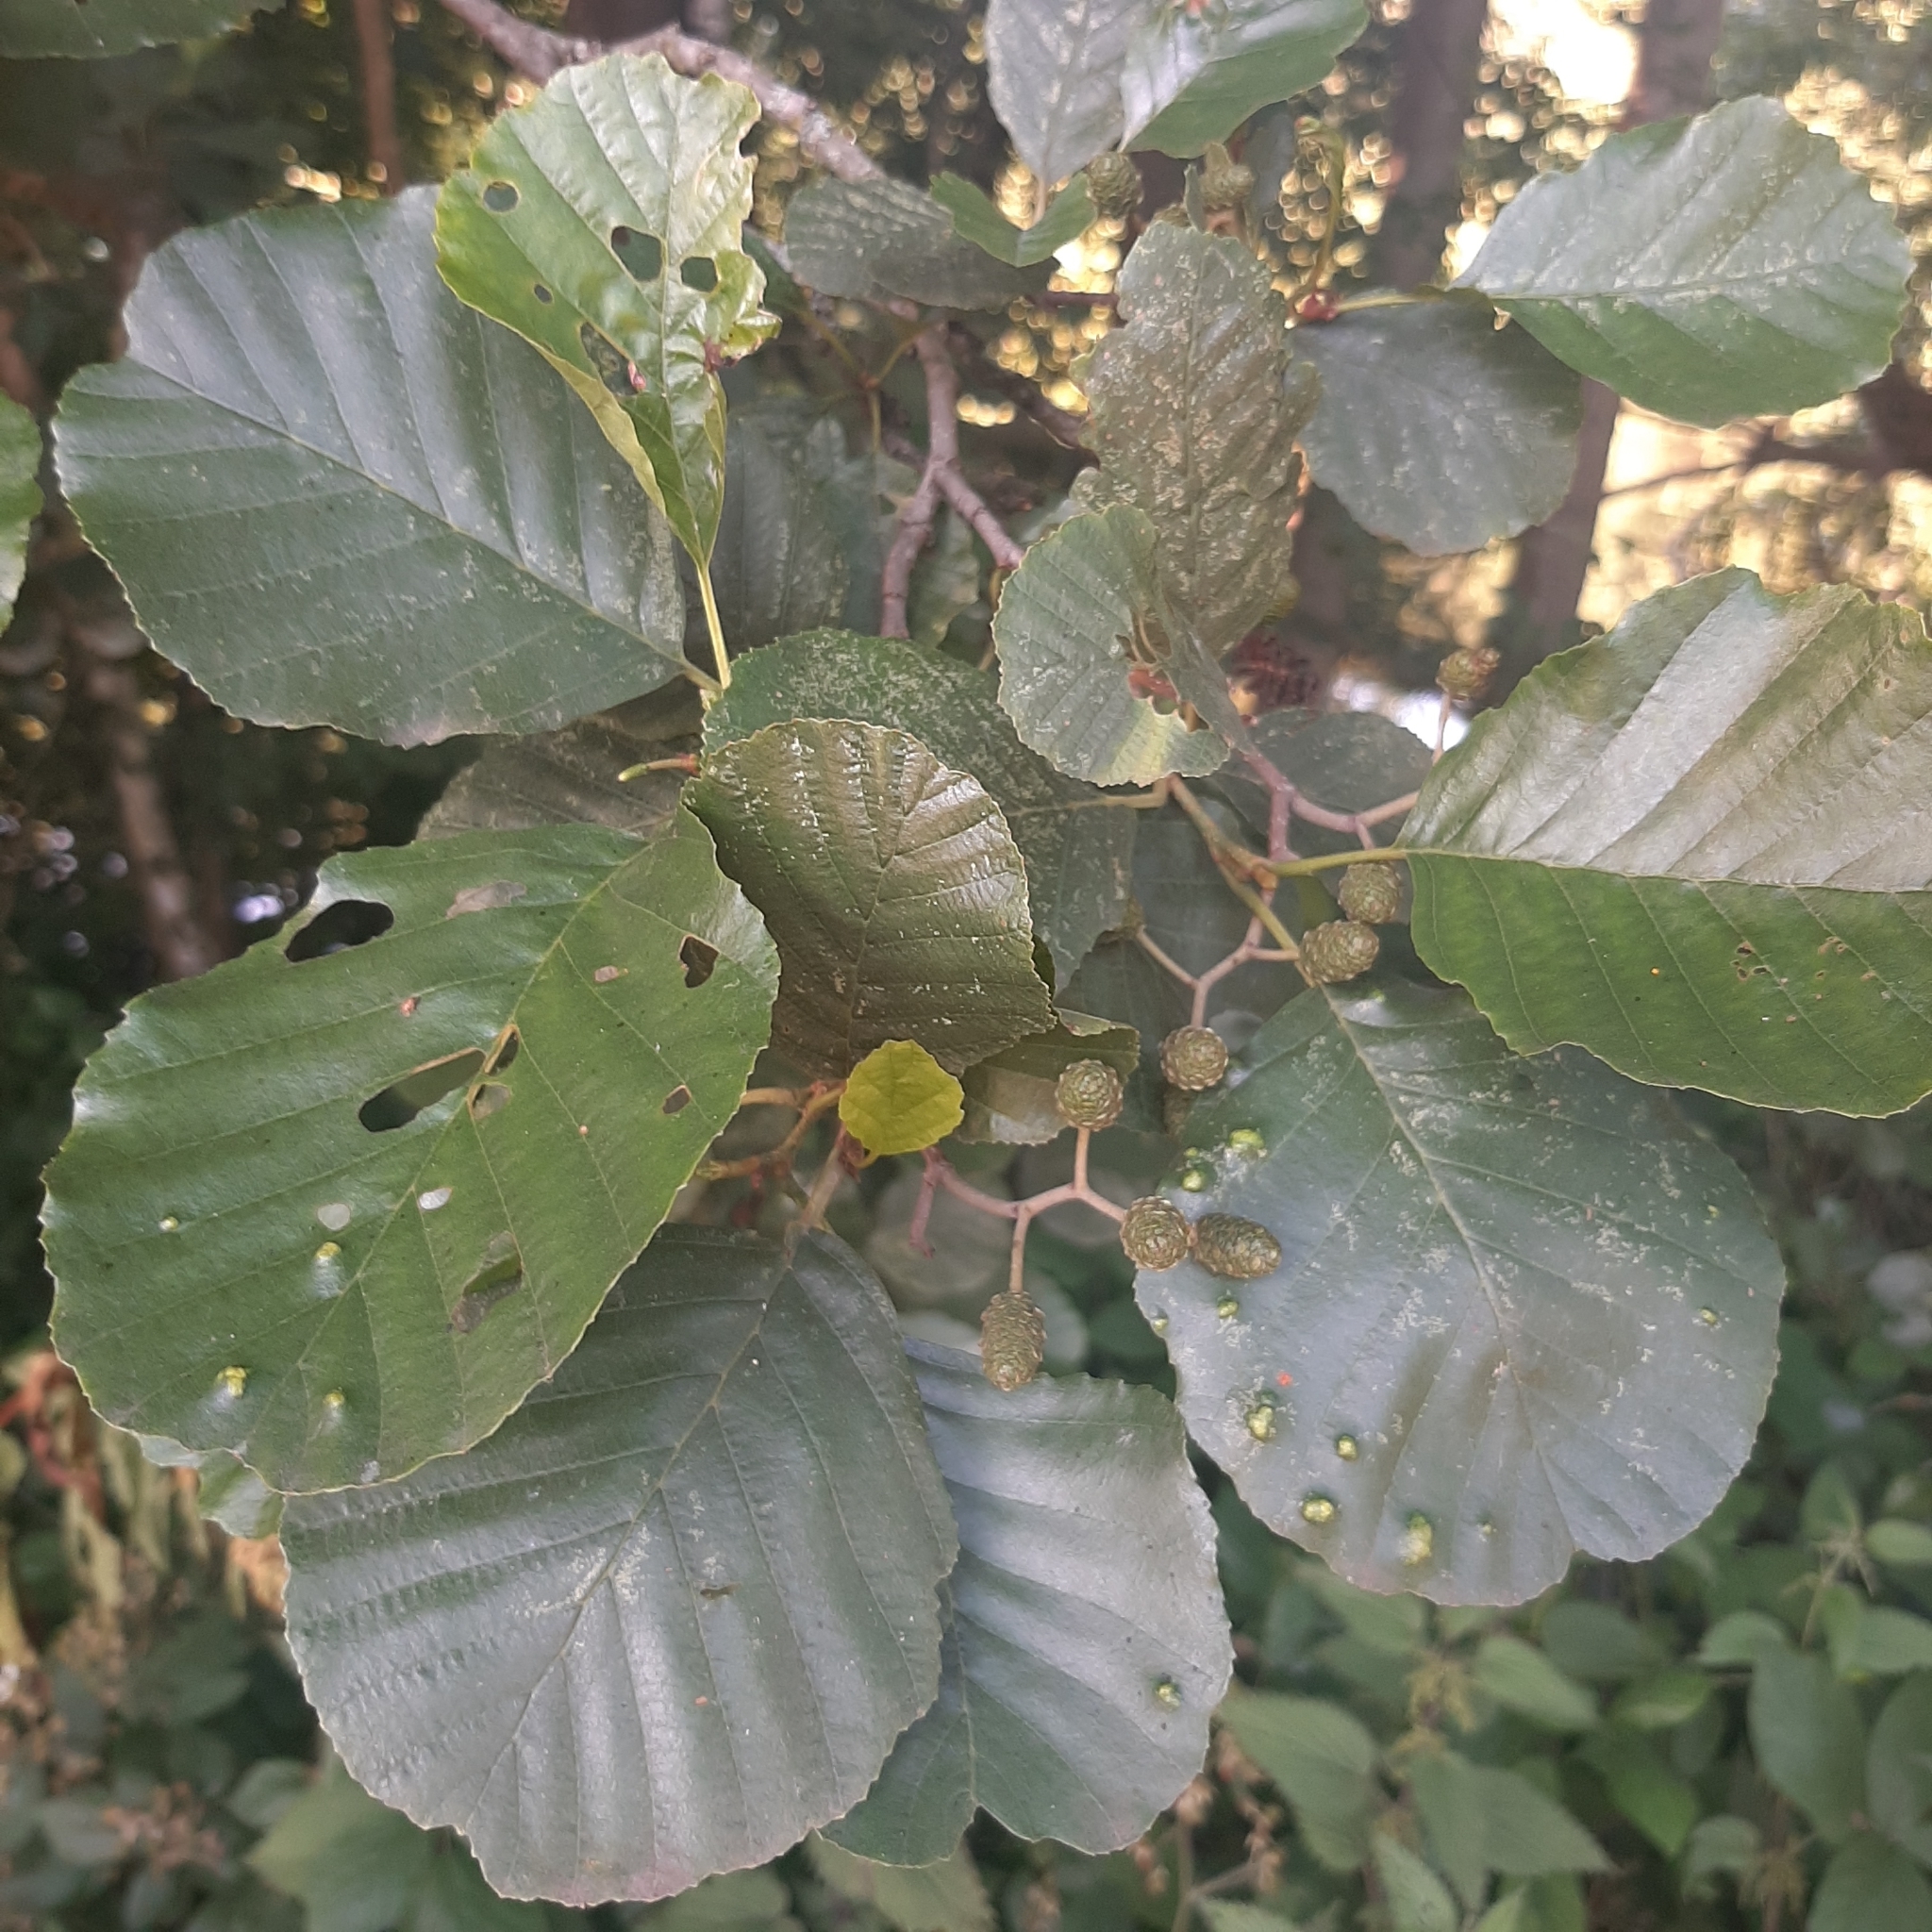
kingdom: Plantae
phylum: Tracheophyta
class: Magnoliopsida
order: Fagales
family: Betulaceae
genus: Alnus
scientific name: Alnus glutinosa
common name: Black alder
